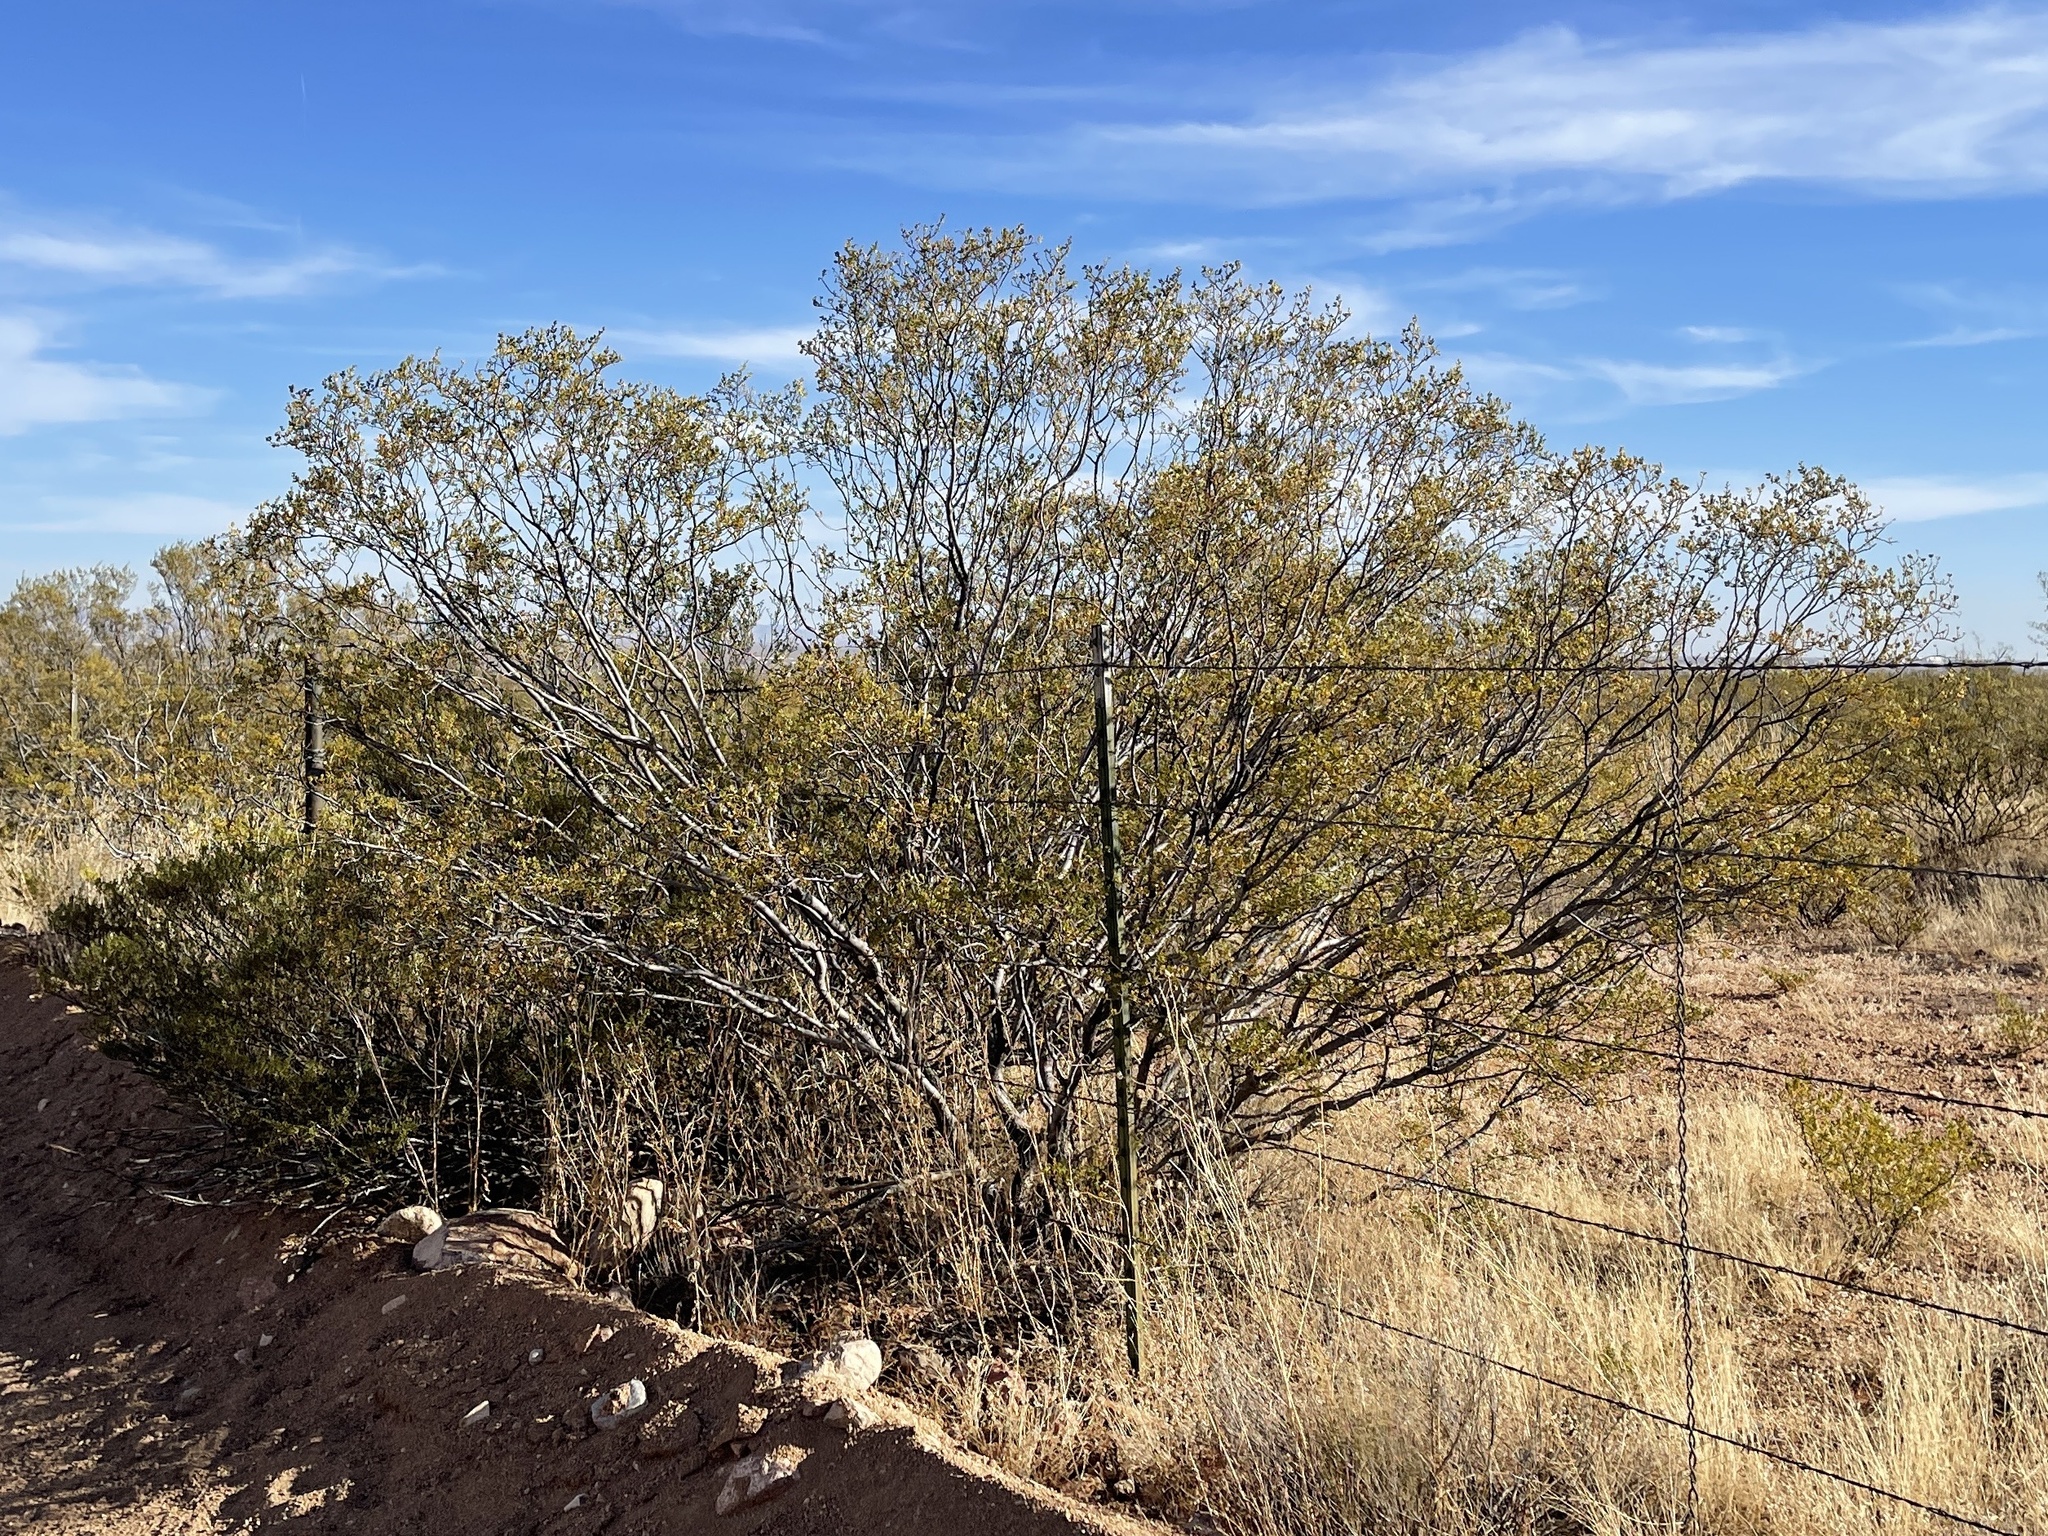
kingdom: Plantae
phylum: Tracheophyta
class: Magnoliopsida
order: Zygophyllales
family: Zygophyllaceae
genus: Larrea
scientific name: Larrea tridentata
